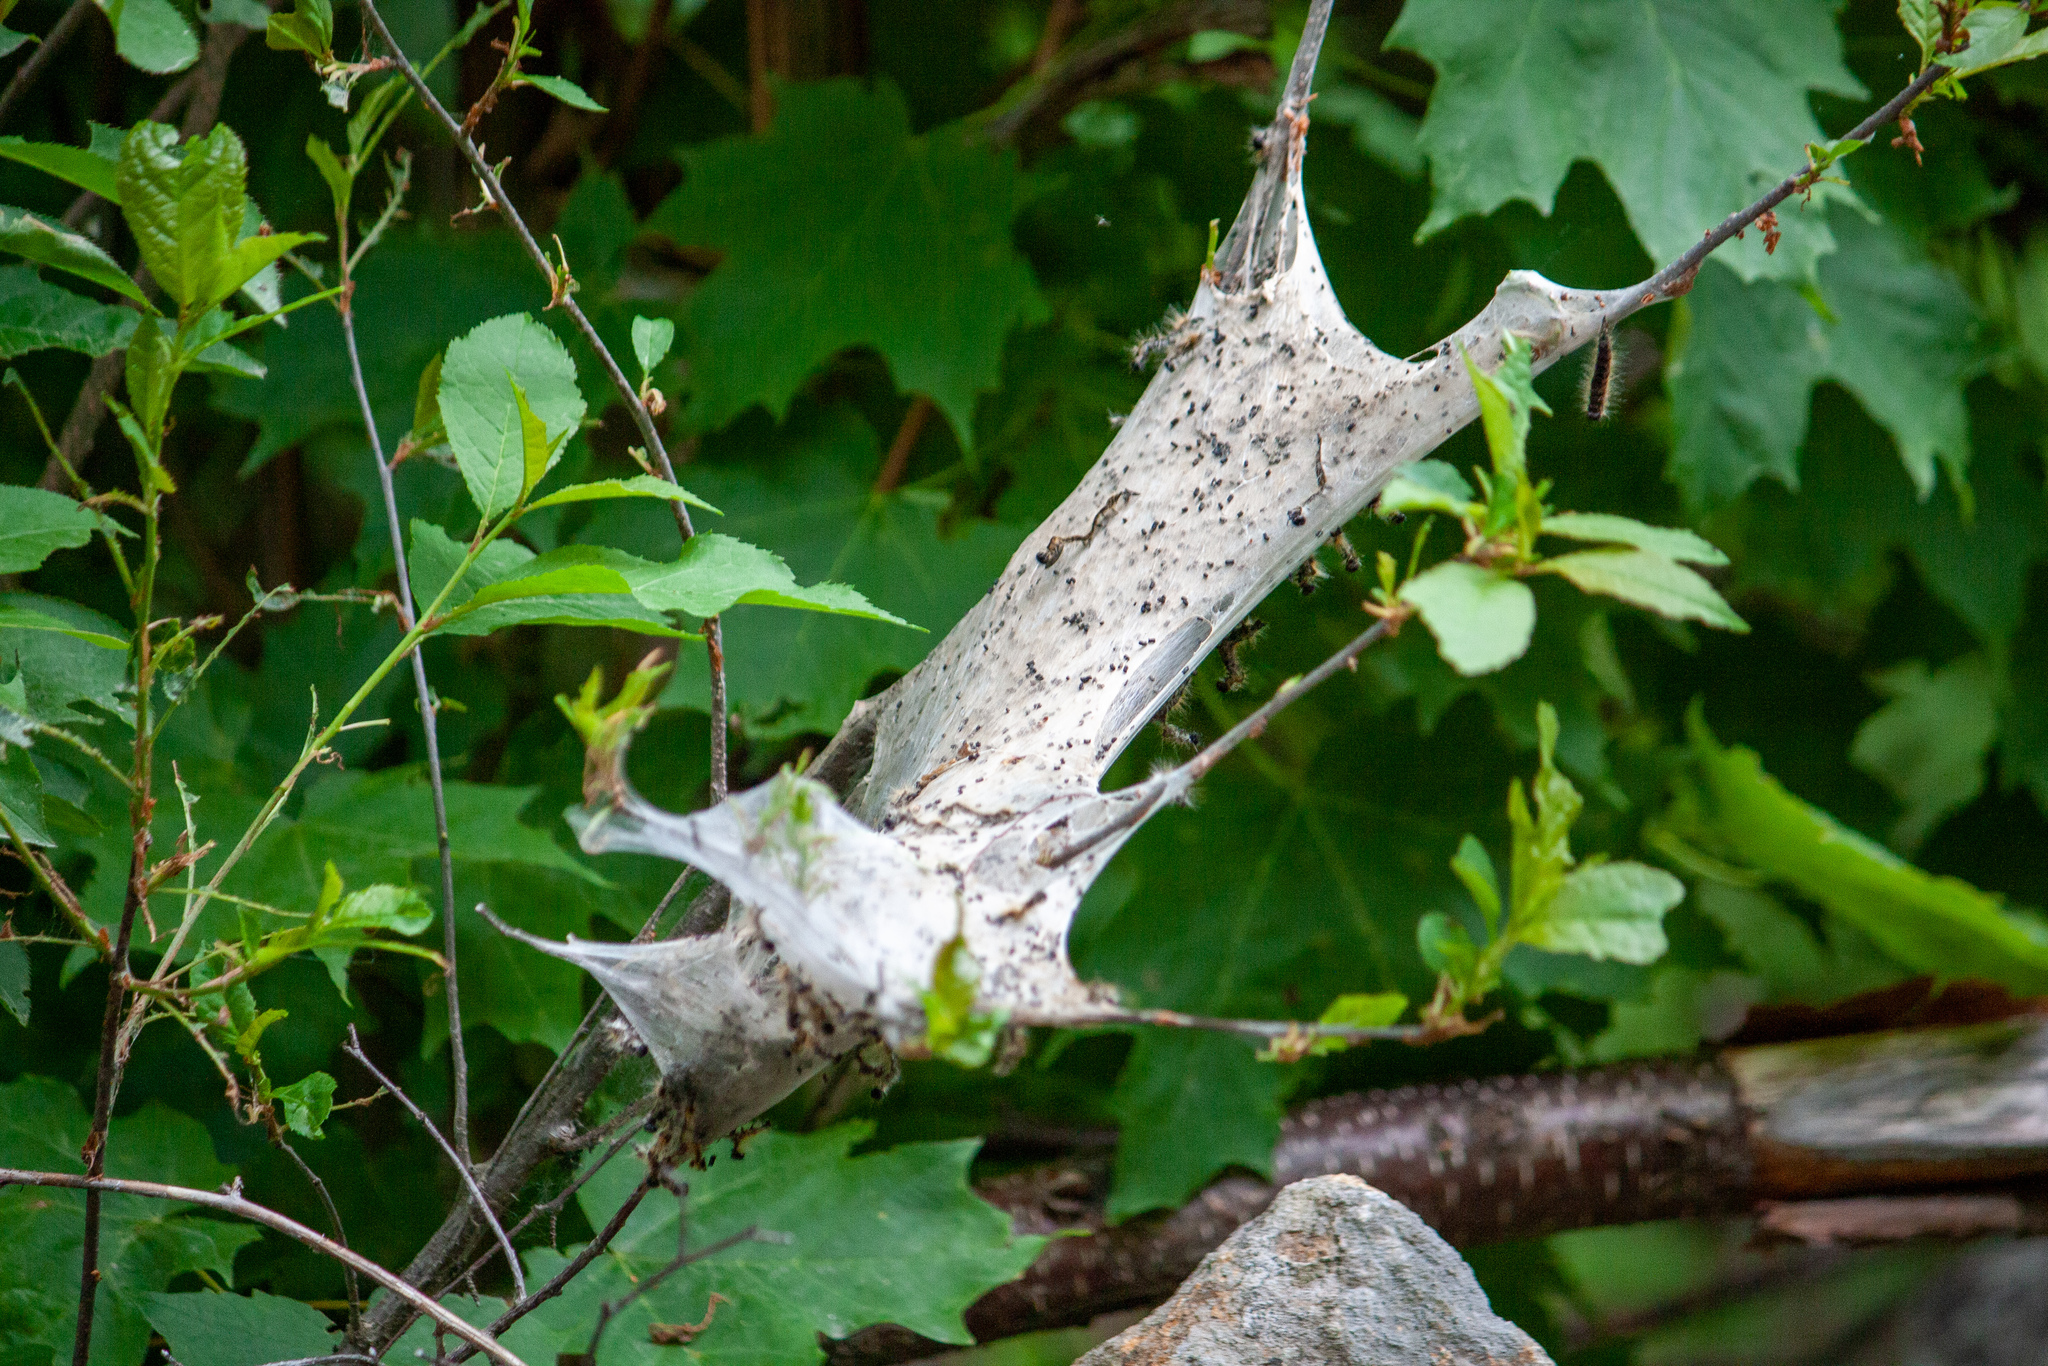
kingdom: Animalia
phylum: Arthropoda
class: Insecta
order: Lepidoptera
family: Lasiocampidae
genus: Malacosoma
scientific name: Malacosoma americana
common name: Eastern tent caterpillar moth
